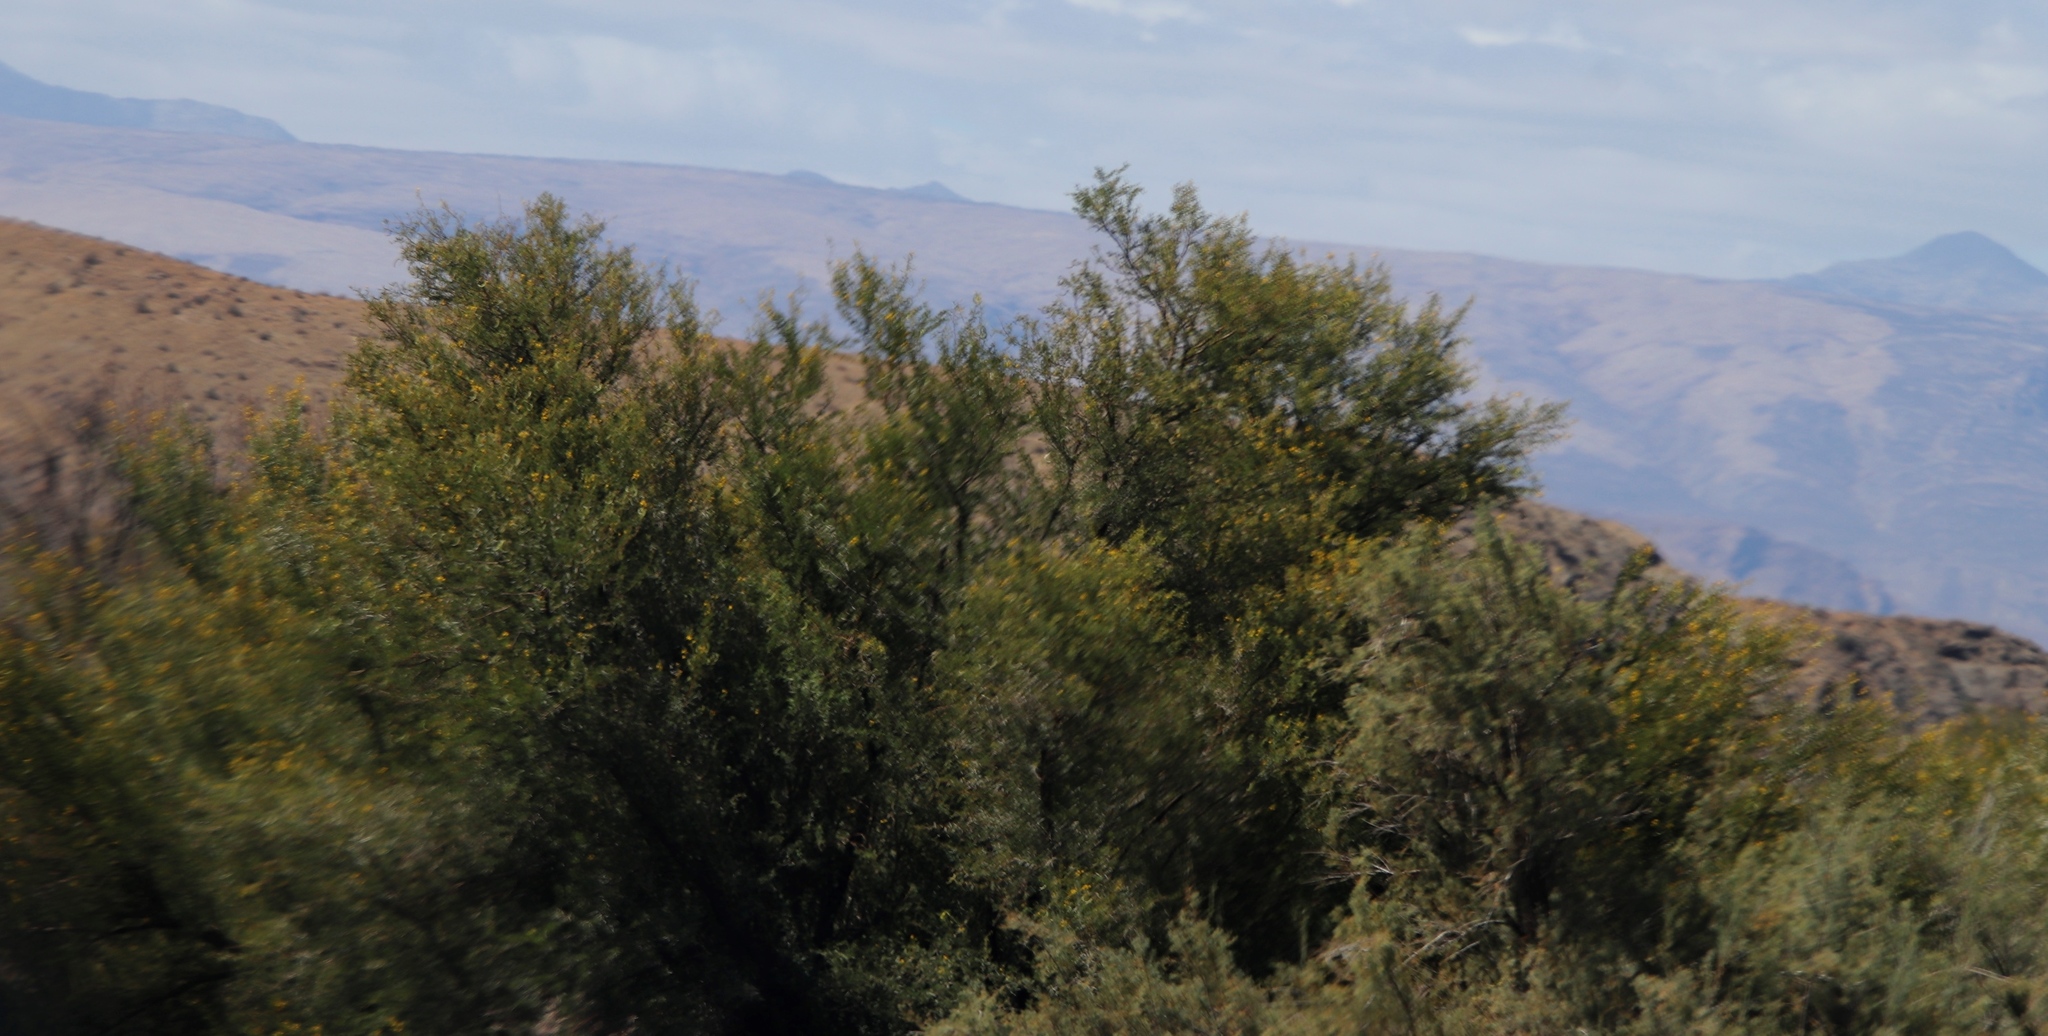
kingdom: Plantae
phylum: Tracheophyta
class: Magnoliopsida
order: Fabales
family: Fabaceae
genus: Vachellia
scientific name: Vachellia karroo
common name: Sweet thorn
